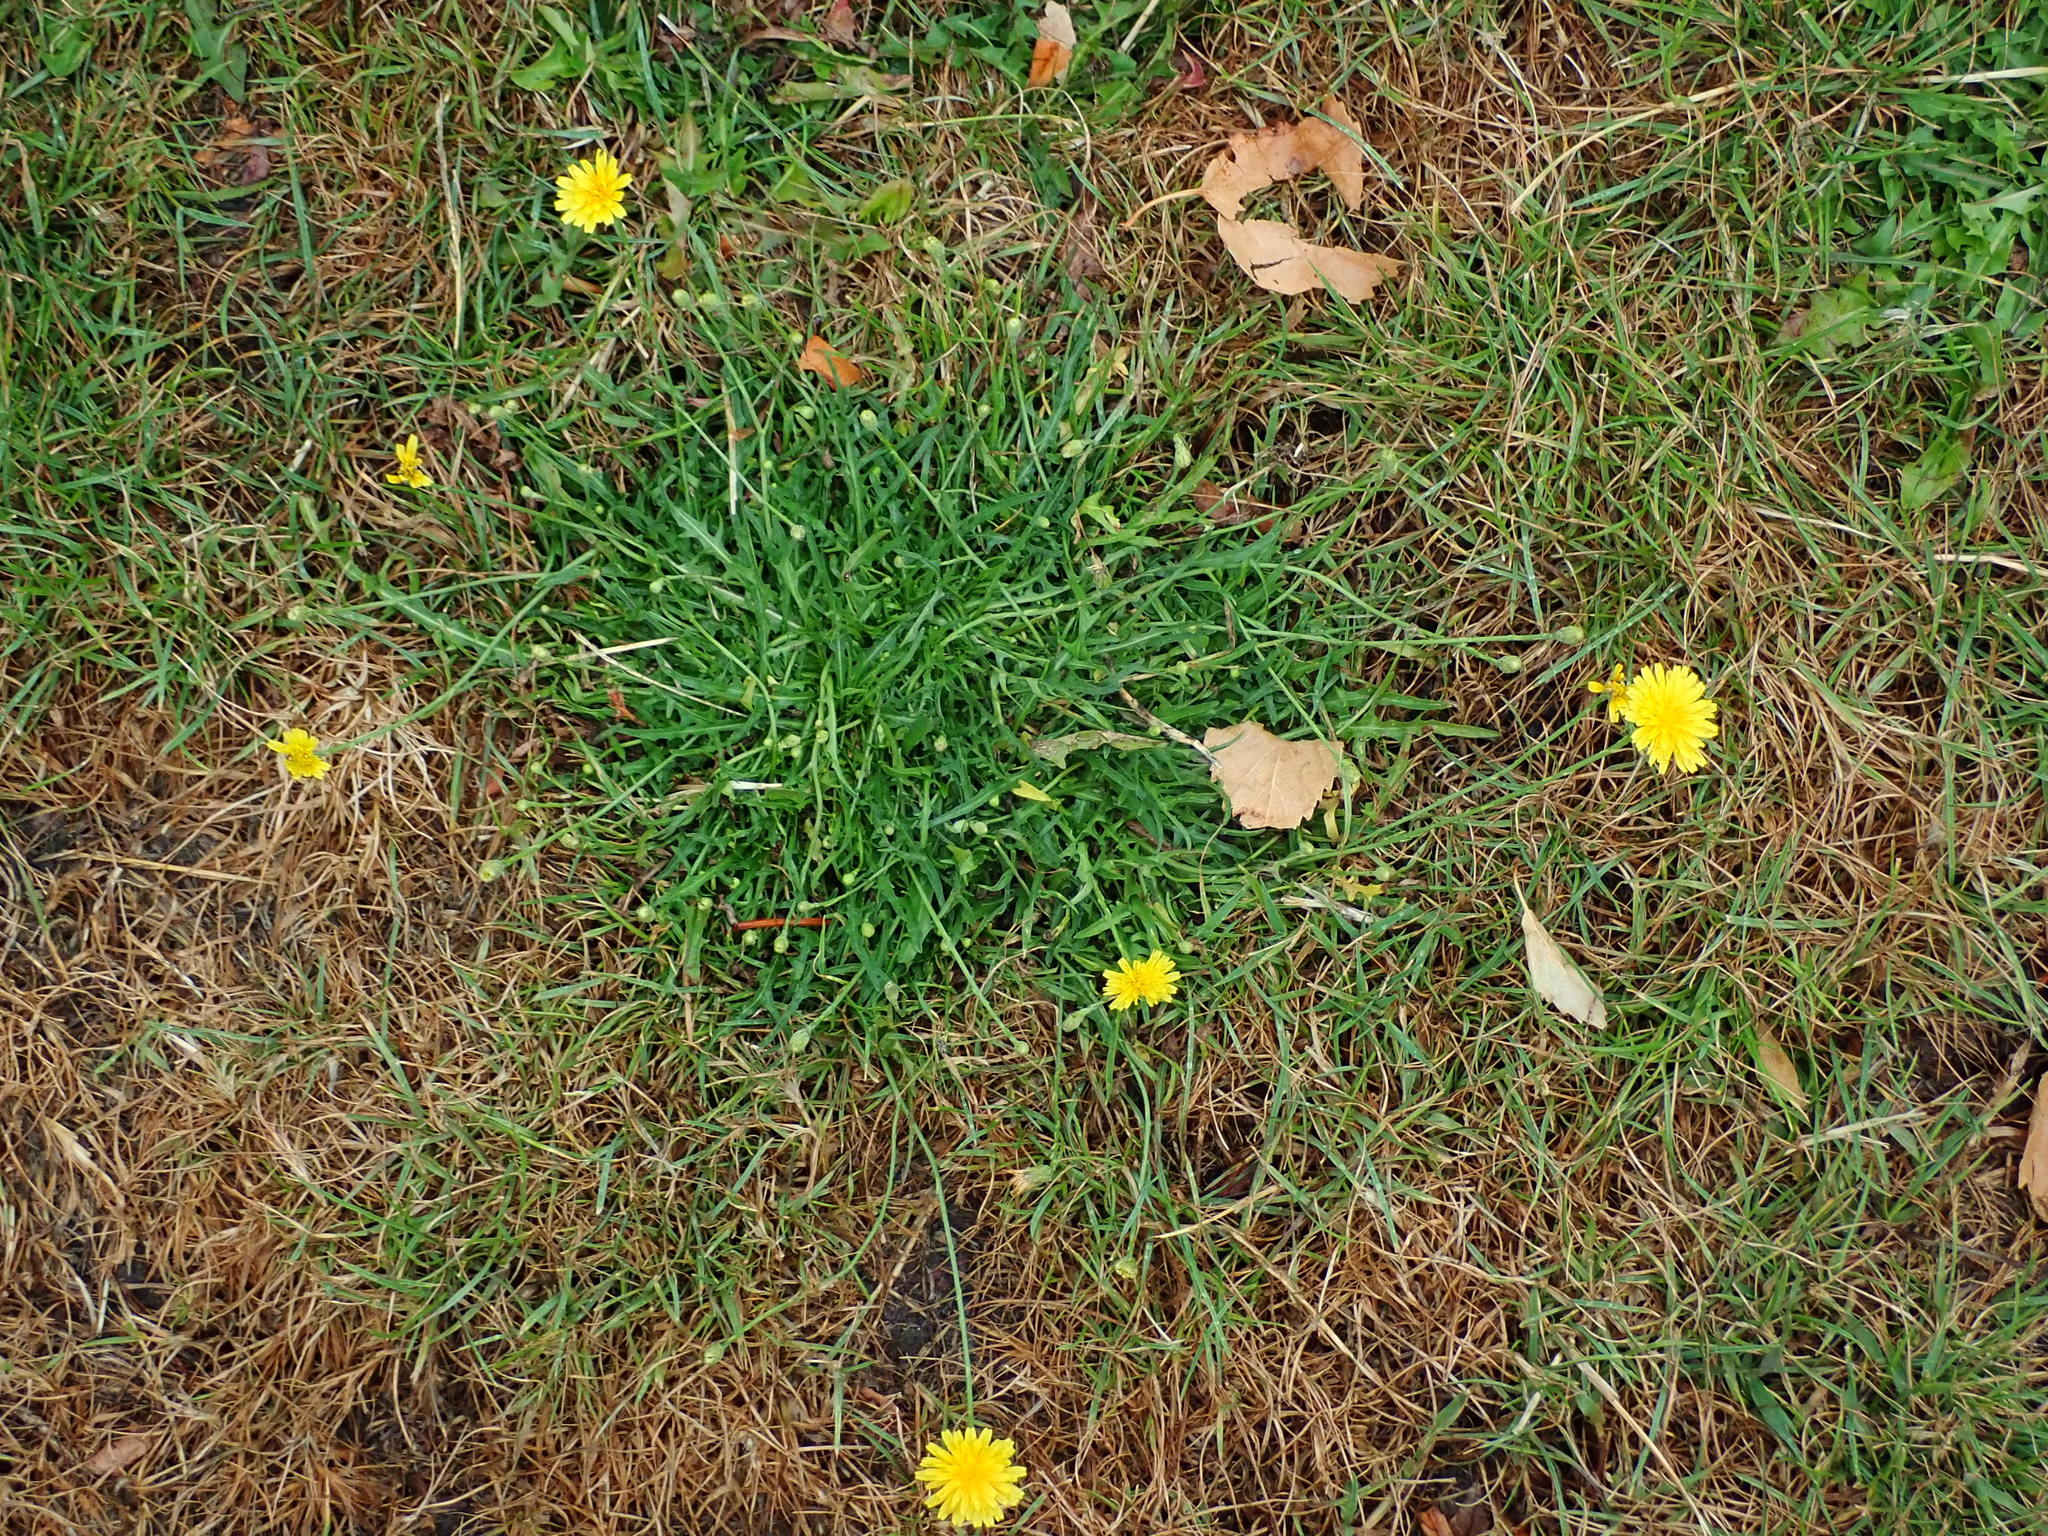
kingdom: Plantae
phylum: Tracheophyta
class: Magnoliopsida
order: Asterales
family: Asteraceae
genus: Scorzoneroides
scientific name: Scorzoneroides autumnalis
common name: Autumn hawkbit
